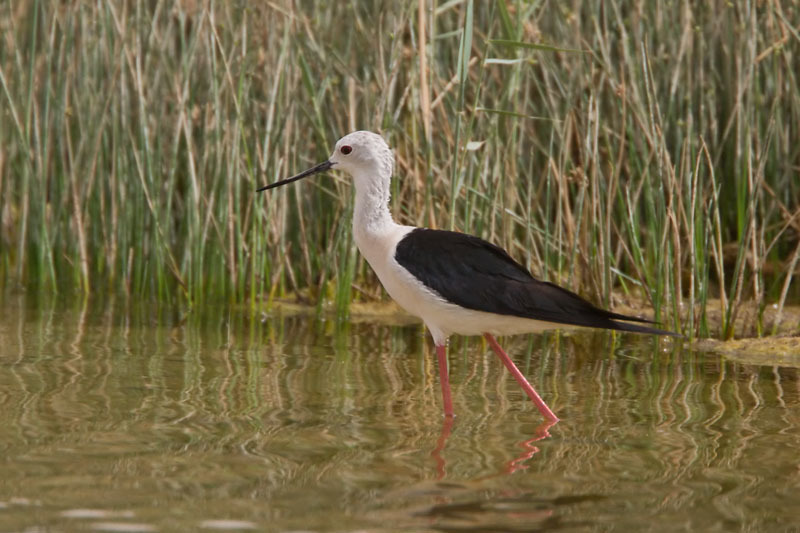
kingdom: Animalia
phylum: Chordata
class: Aves
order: Charadriiformes
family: Recurvirostridae
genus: Himantopus
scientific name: Himantopus himantopus
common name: Black-winged stilt
